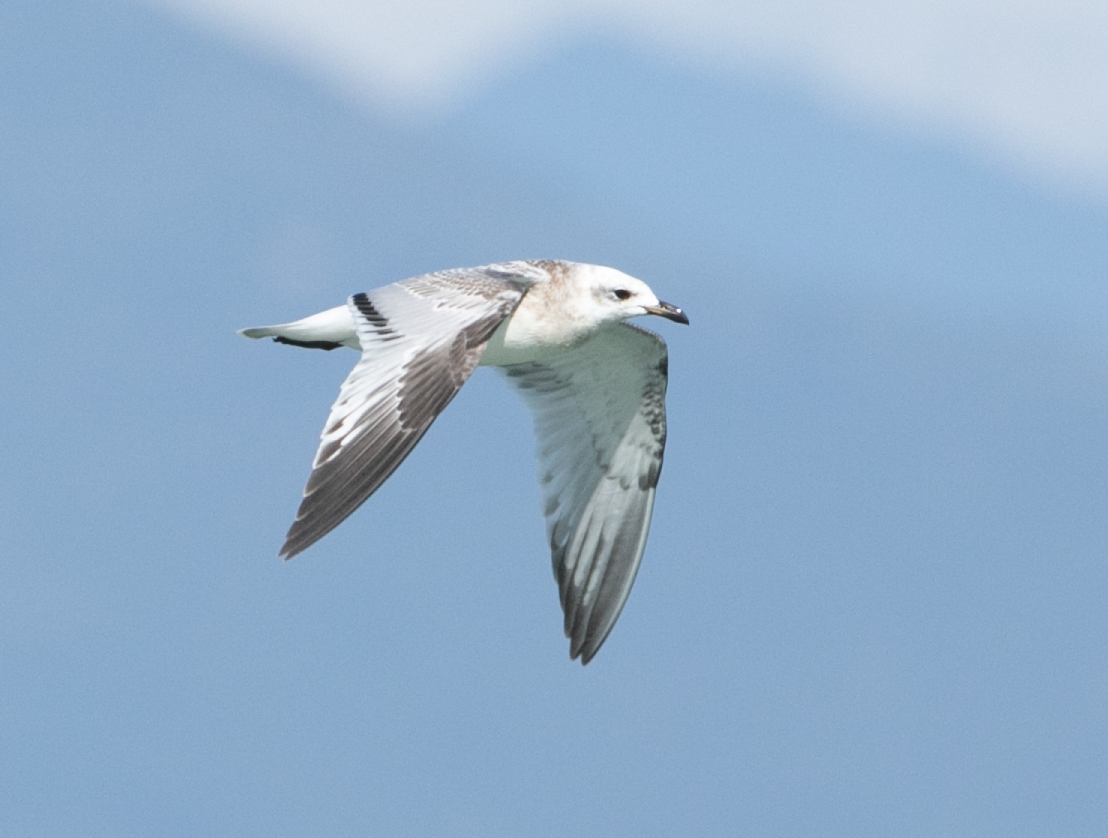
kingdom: Animalia
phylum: Chordata
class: Aves
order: Charadriiformes
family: Laridae
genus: Ichthyaetus
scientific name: Ichthyaetus melanocephalus
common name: Mediterranean gull
